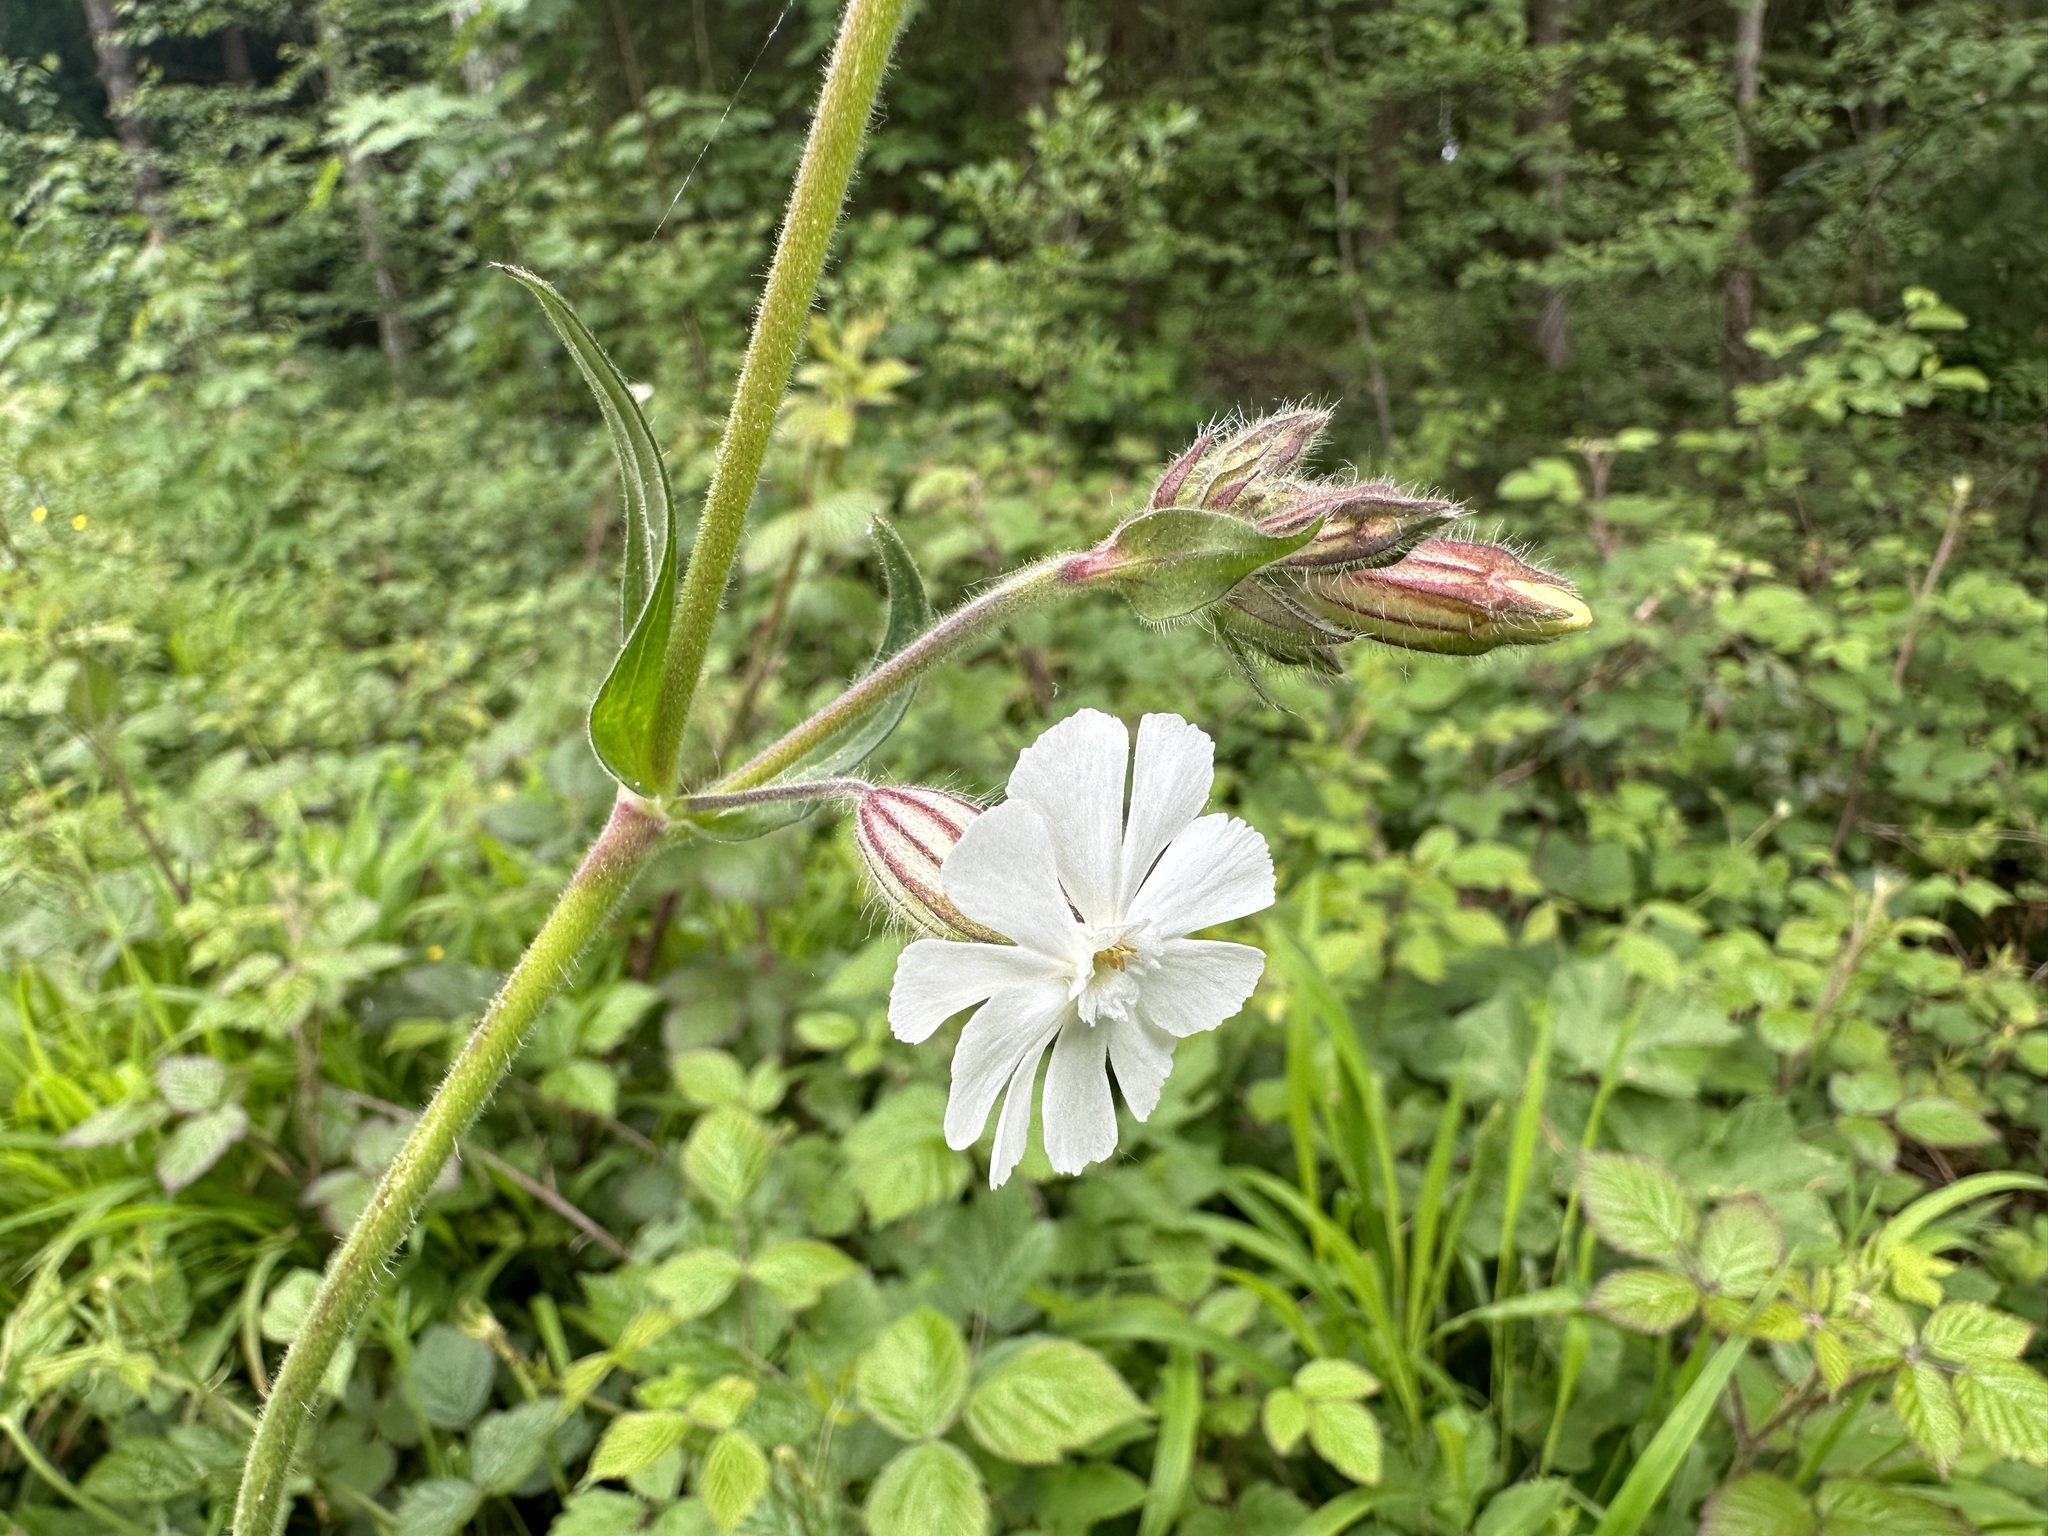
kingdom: Plantae
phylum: Tracheophyta
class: Magnoliopsida
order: Caryophyllales
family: Caryophyllaceae
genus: Silene
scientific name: Silene latifolia
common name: White campion
